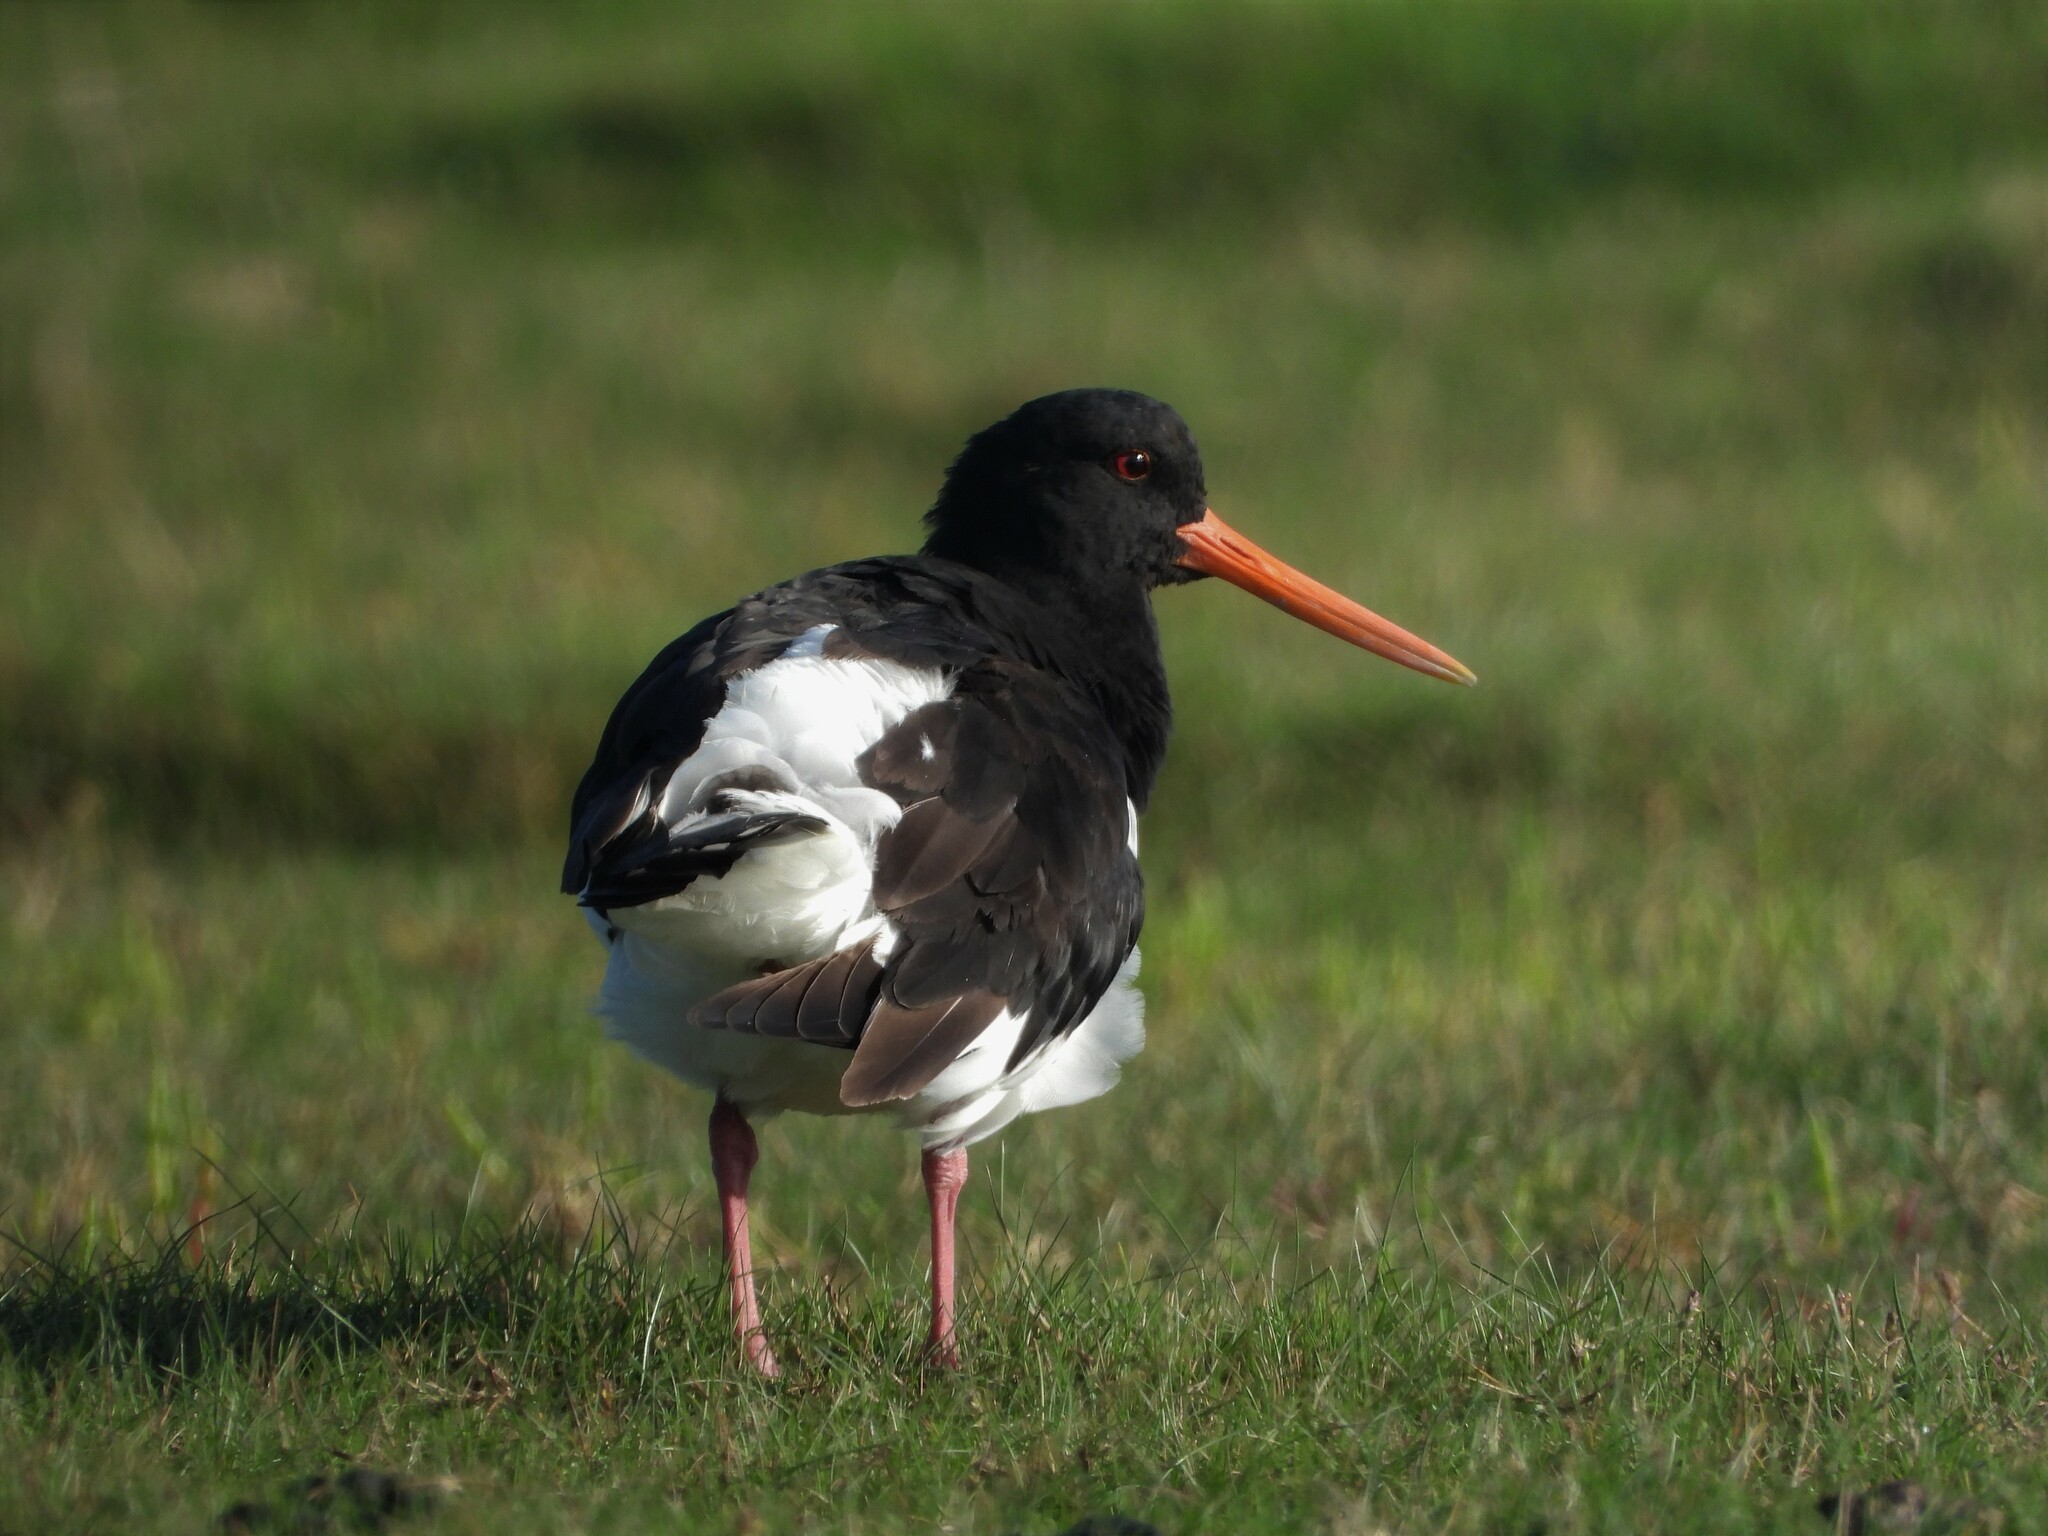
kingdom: Animalia
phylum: Chordata
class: Aves
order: Charadriiformes
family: Haematopodidae
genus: Haematopus
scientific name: Haematopus ostralegus
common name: Eurasian oystercatcher
